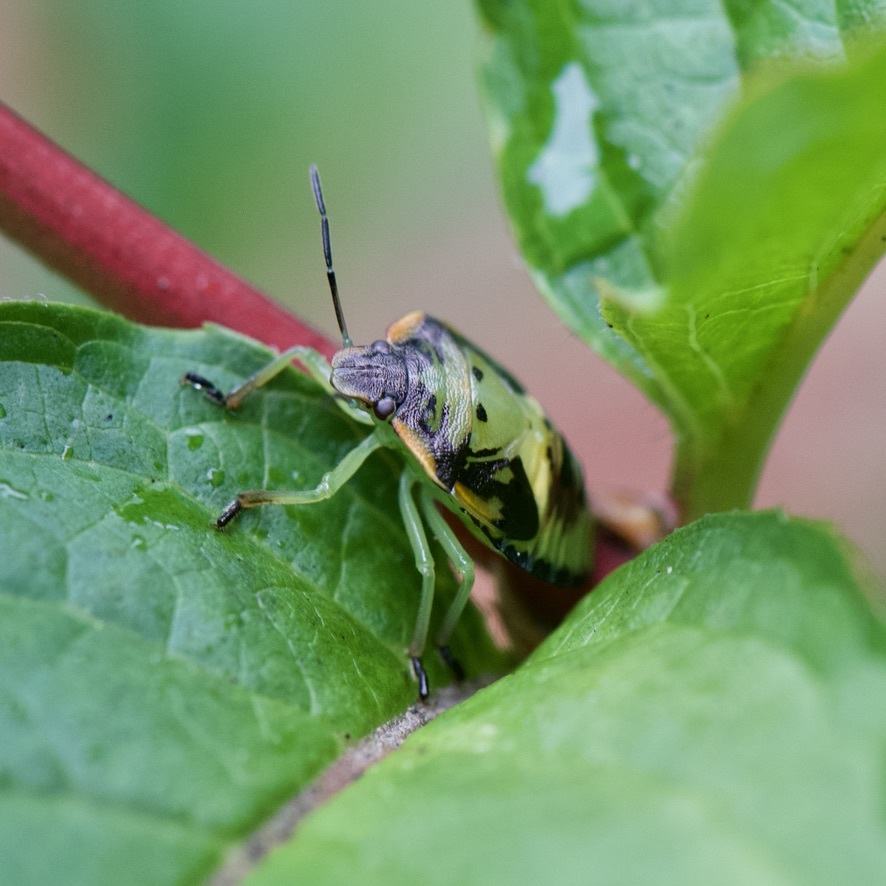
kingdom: Animalia
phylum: Arthropoda
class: Insecta
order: Hemiptera
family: Pentatomidae
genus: Chinavia
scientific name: Chinavia hilaris
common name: Green stink bug
